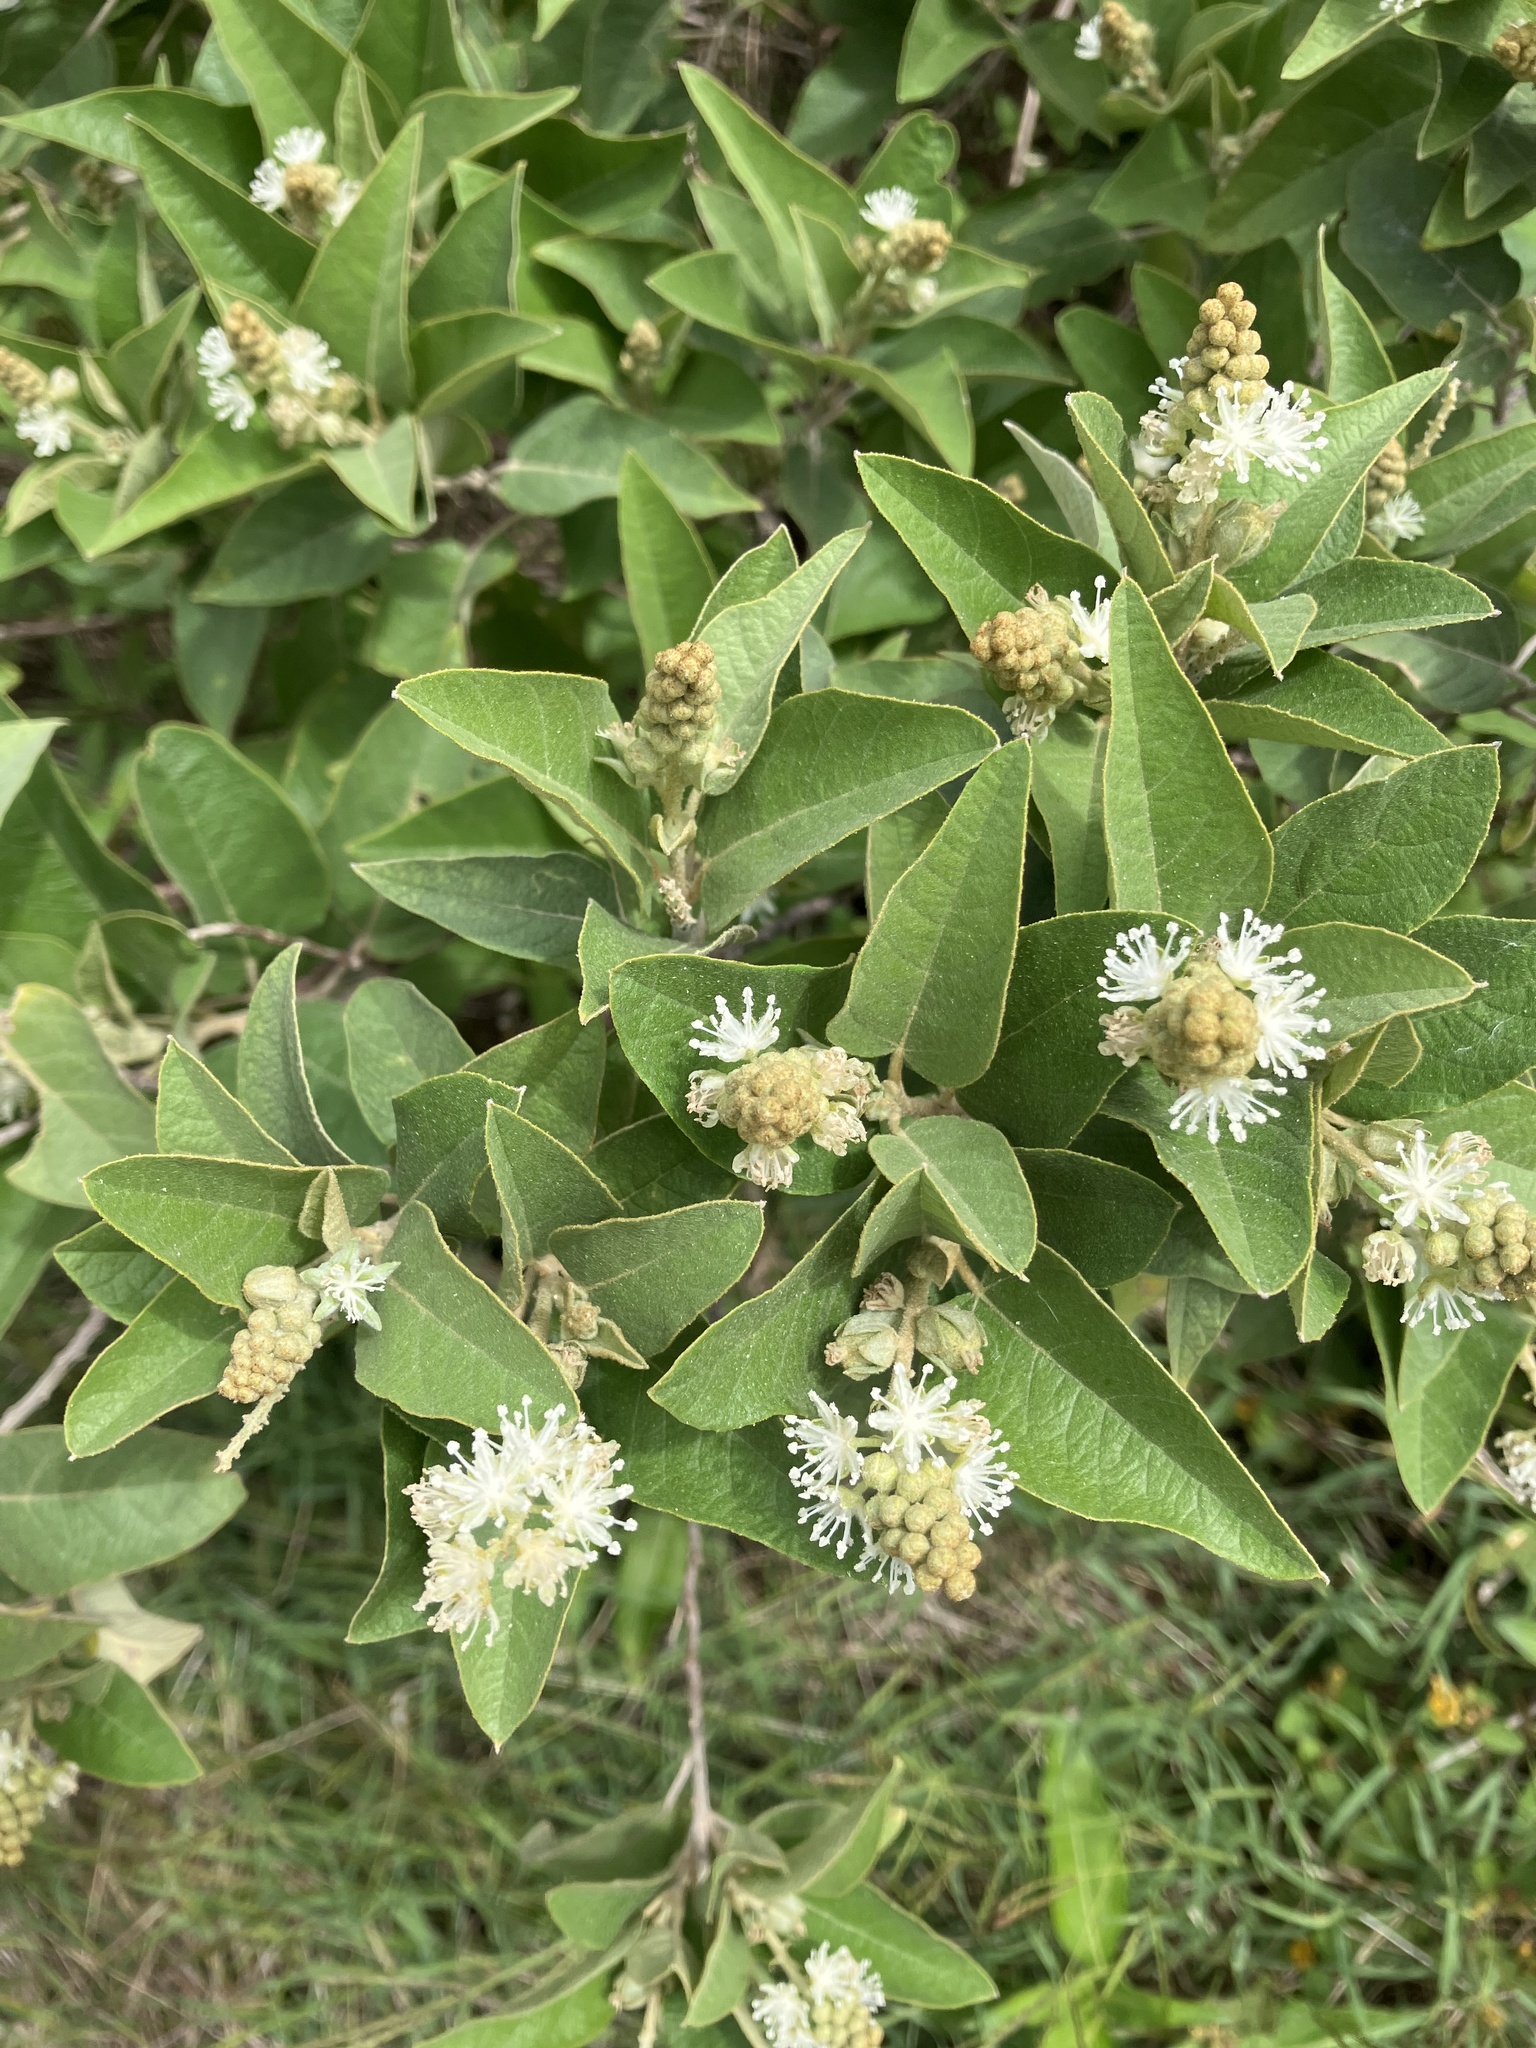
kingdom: Plantae
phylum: Tracheophyta
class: Magnoliopsida
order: Malpighiales
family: Euphorbiaceae
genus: Croton
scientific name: Croton astroites
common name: Wild marrow
